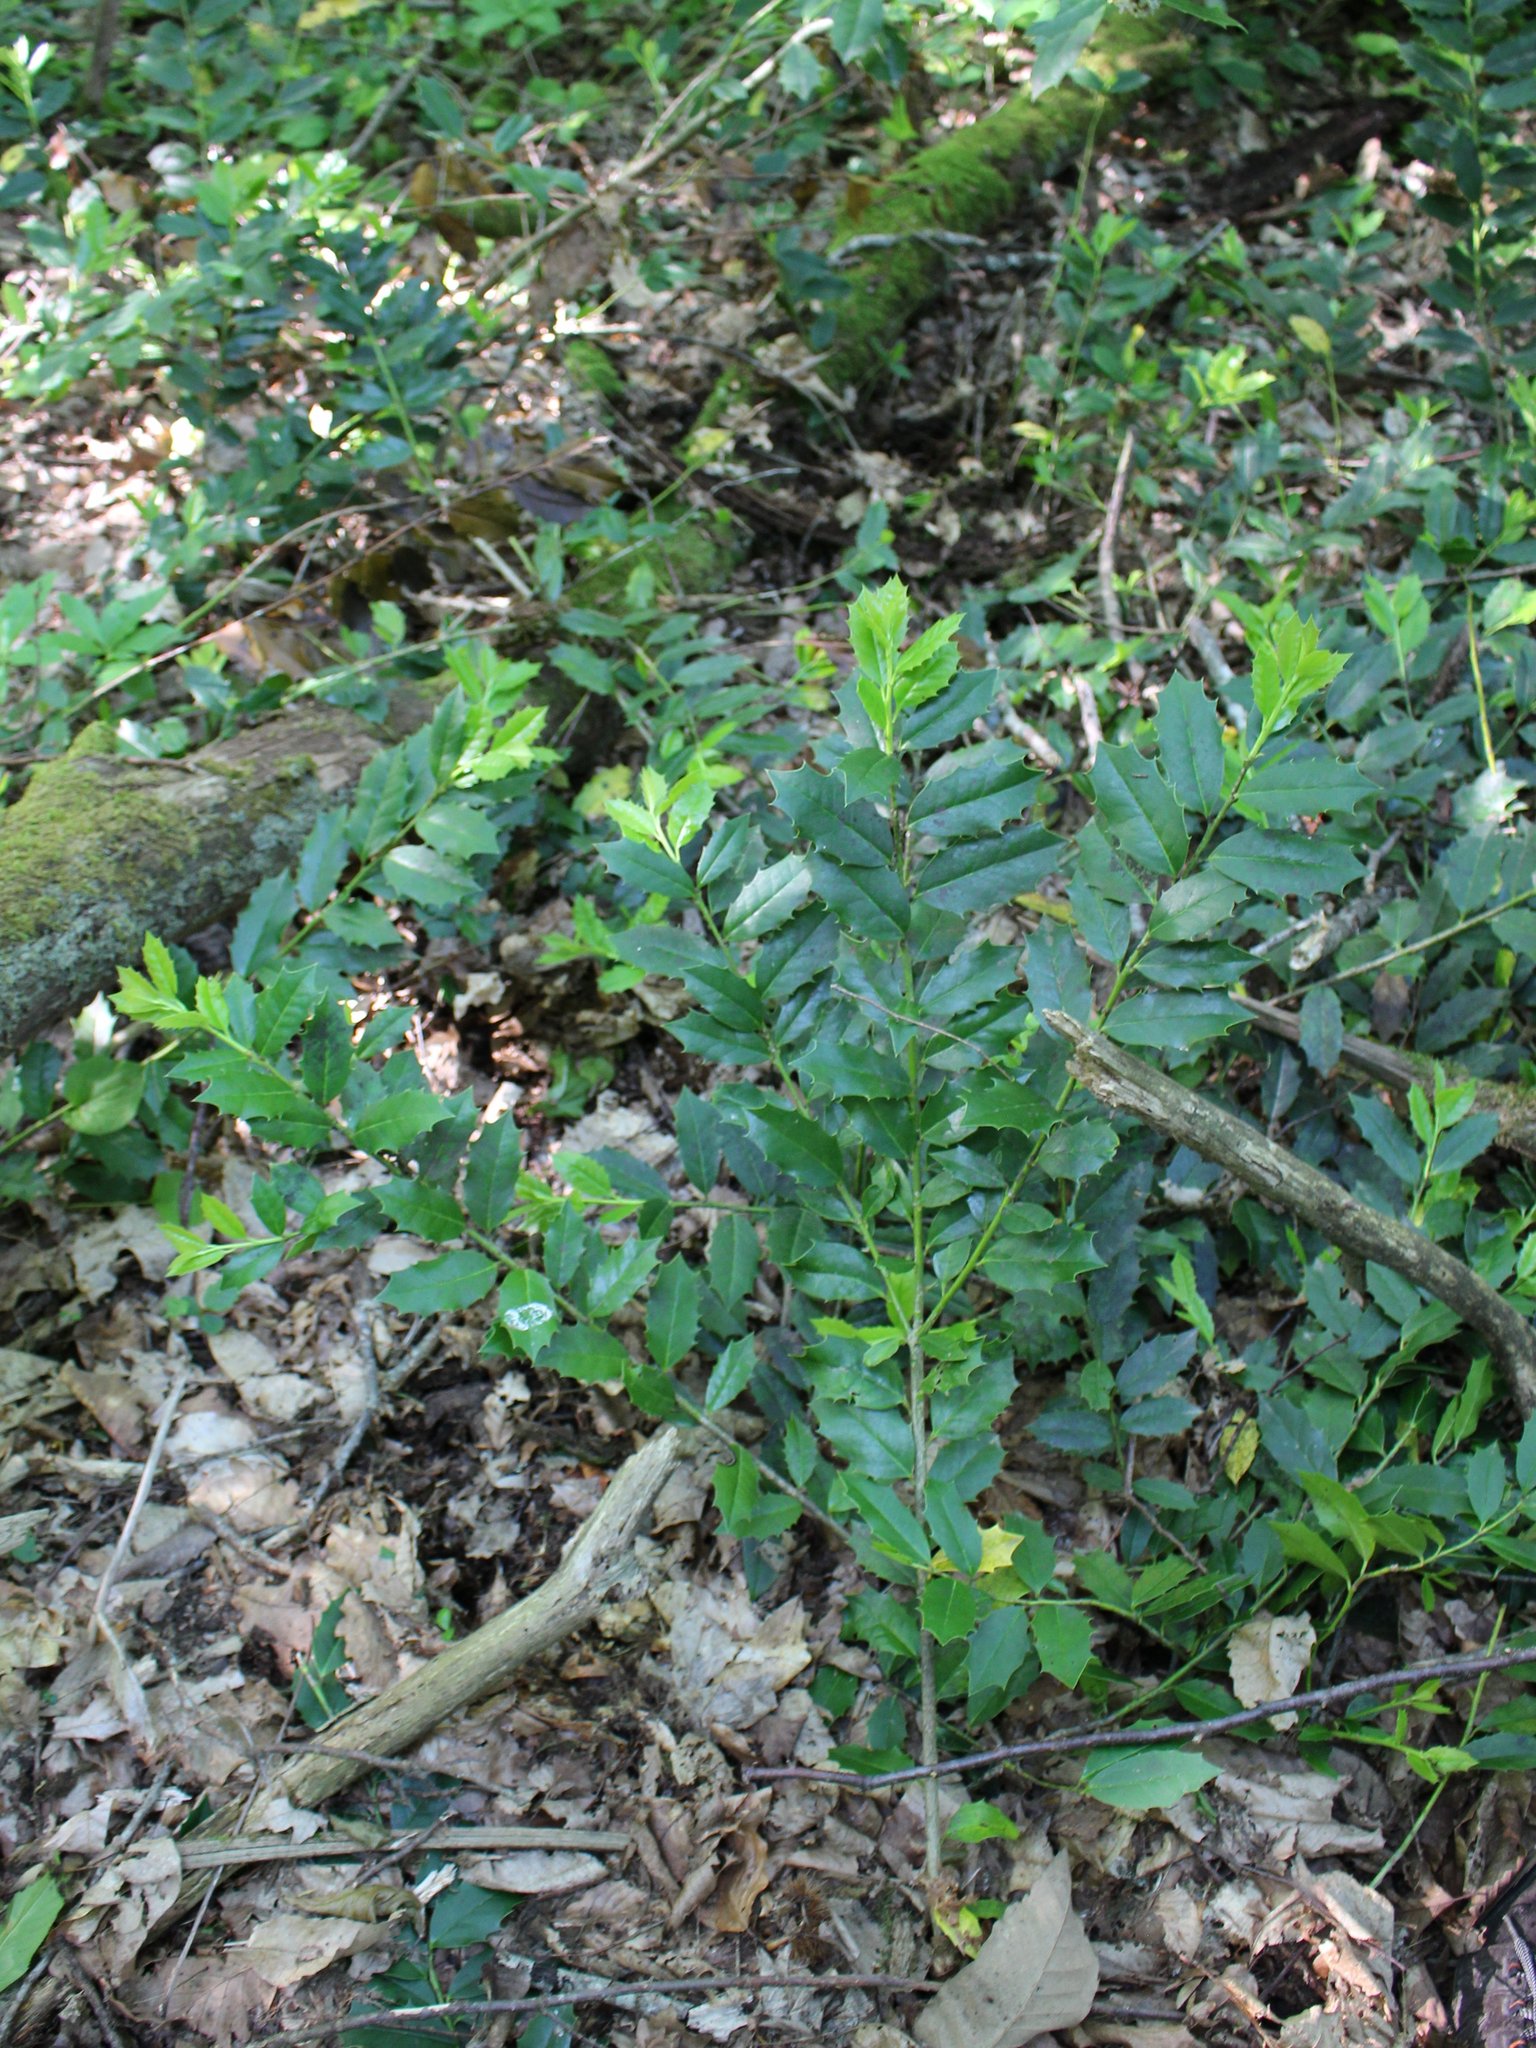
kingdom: Plantae
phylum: Tracheophyta
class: Magnoliopsida
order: Aquifoliales
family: Aquifoliaceae
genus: Ilex
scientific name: Ilex colchica
